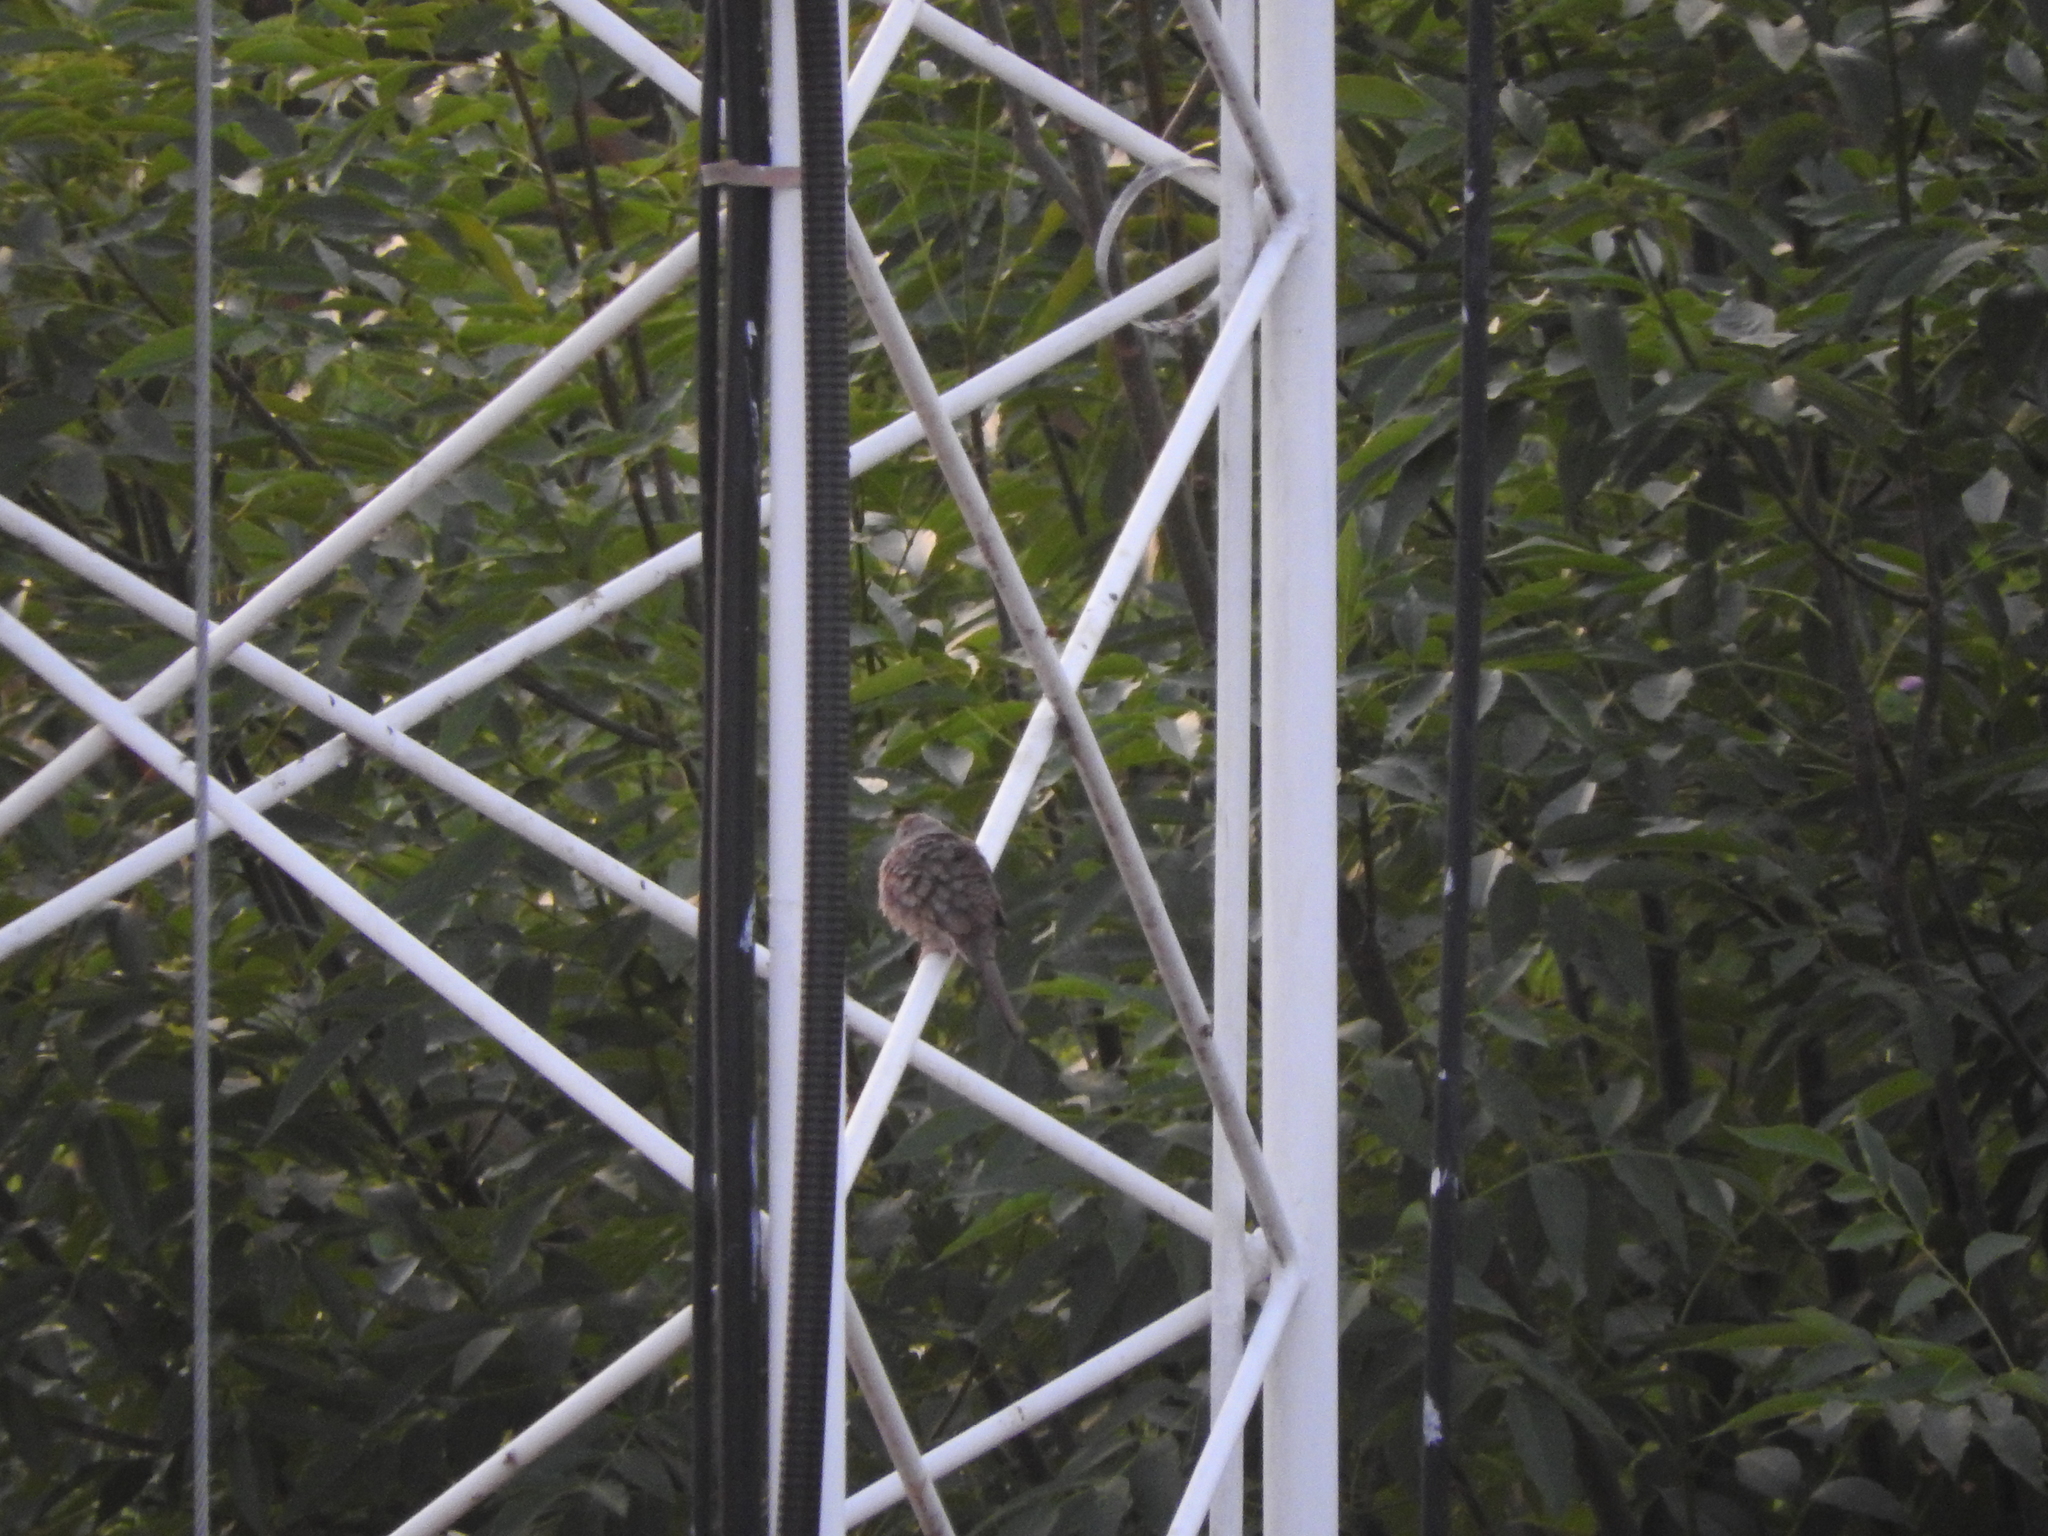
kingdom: Animalia
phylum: Chordata
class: Aves
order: Columbiformes
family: Columbidae
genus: Columbina
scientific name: Columbina inca
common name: Inca dove
